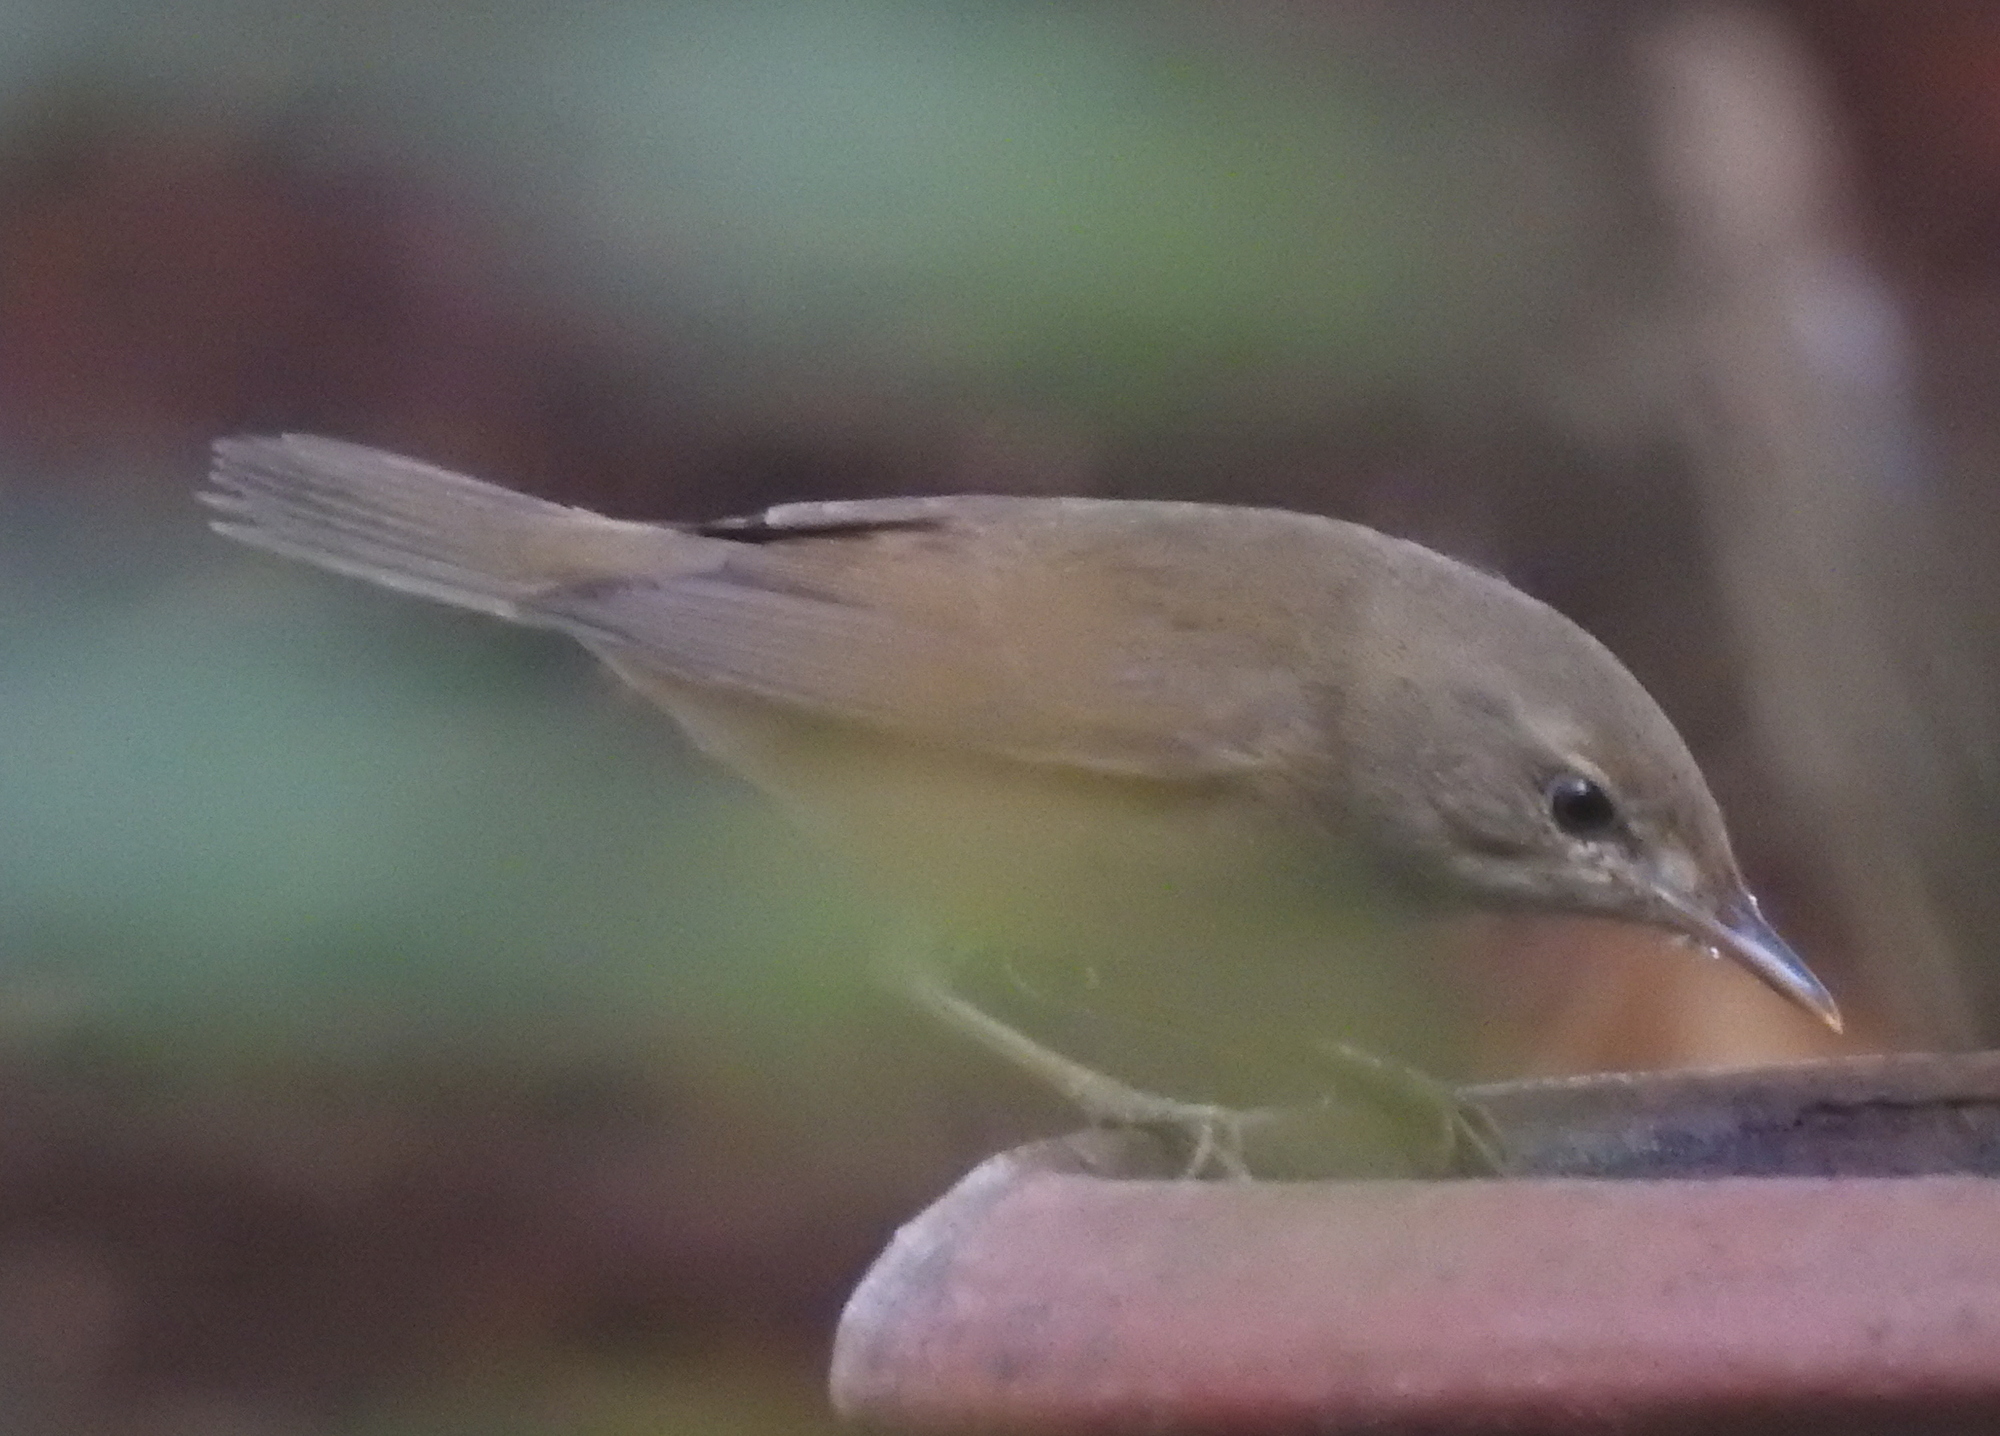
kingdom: Animalia
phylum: Chordata
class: Aves
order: Passeriformes
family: Acrocephalidae
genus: Acrocephalus
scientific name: Acrocephalus dumetorum
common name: Blyth's reed warbler
